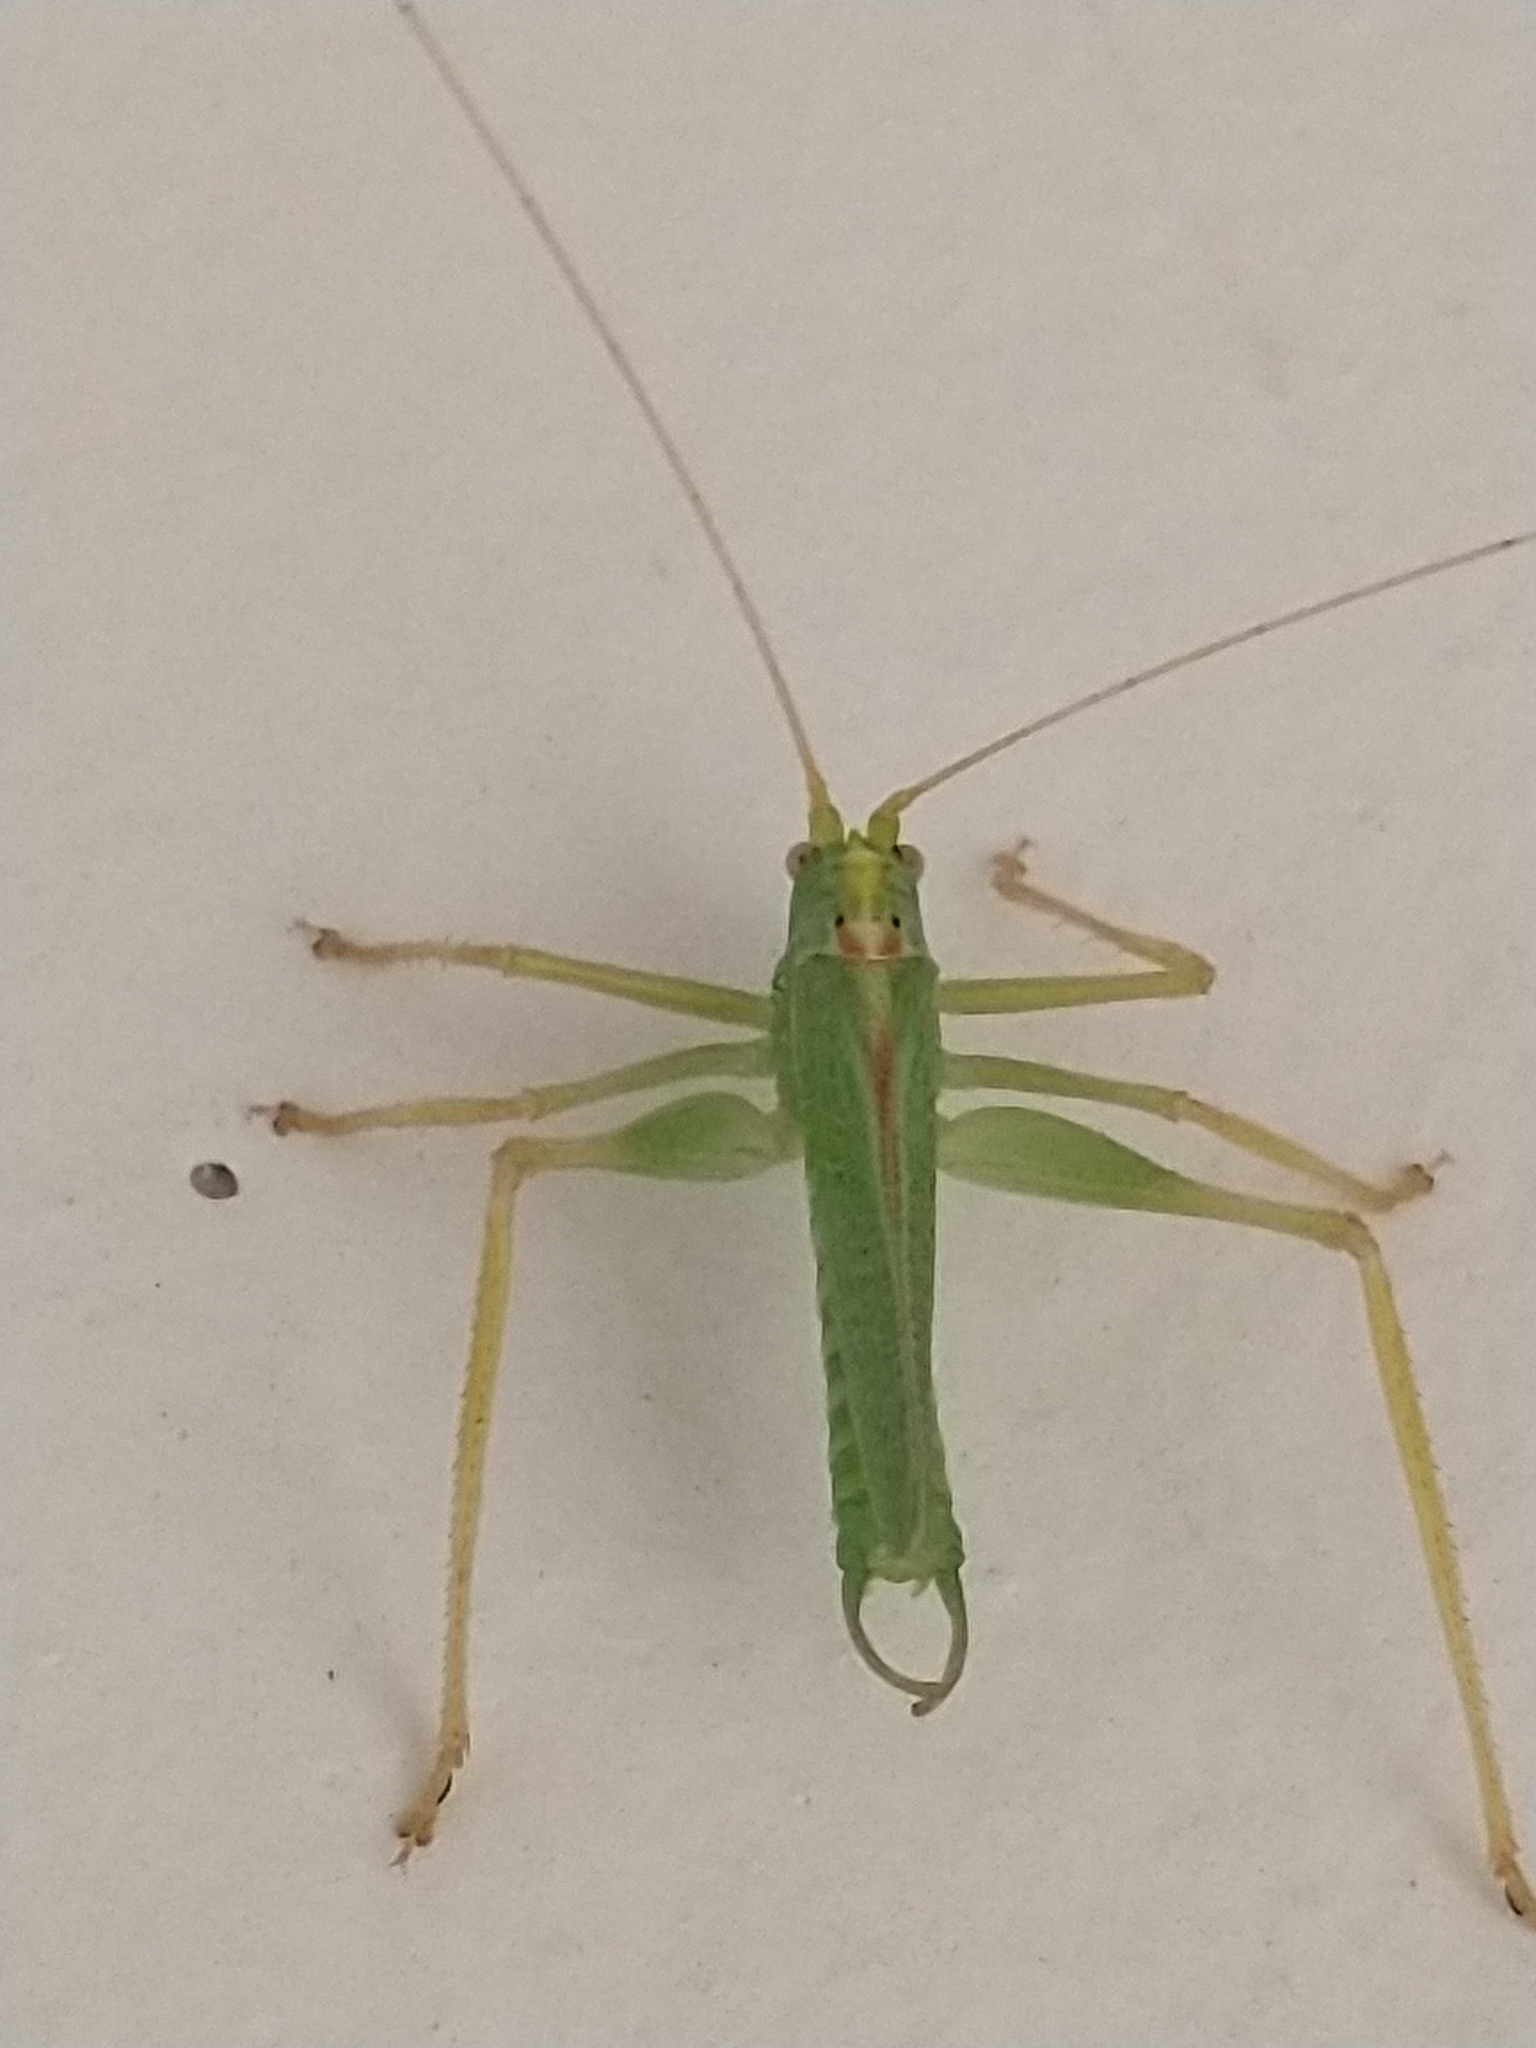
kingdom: Animalia
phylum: Arthropoda
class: Insecta
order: Orthoptera
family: Tettigoniidae
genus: Meconema
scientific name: Meconema thalassinum
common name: Oak bush-cricket
